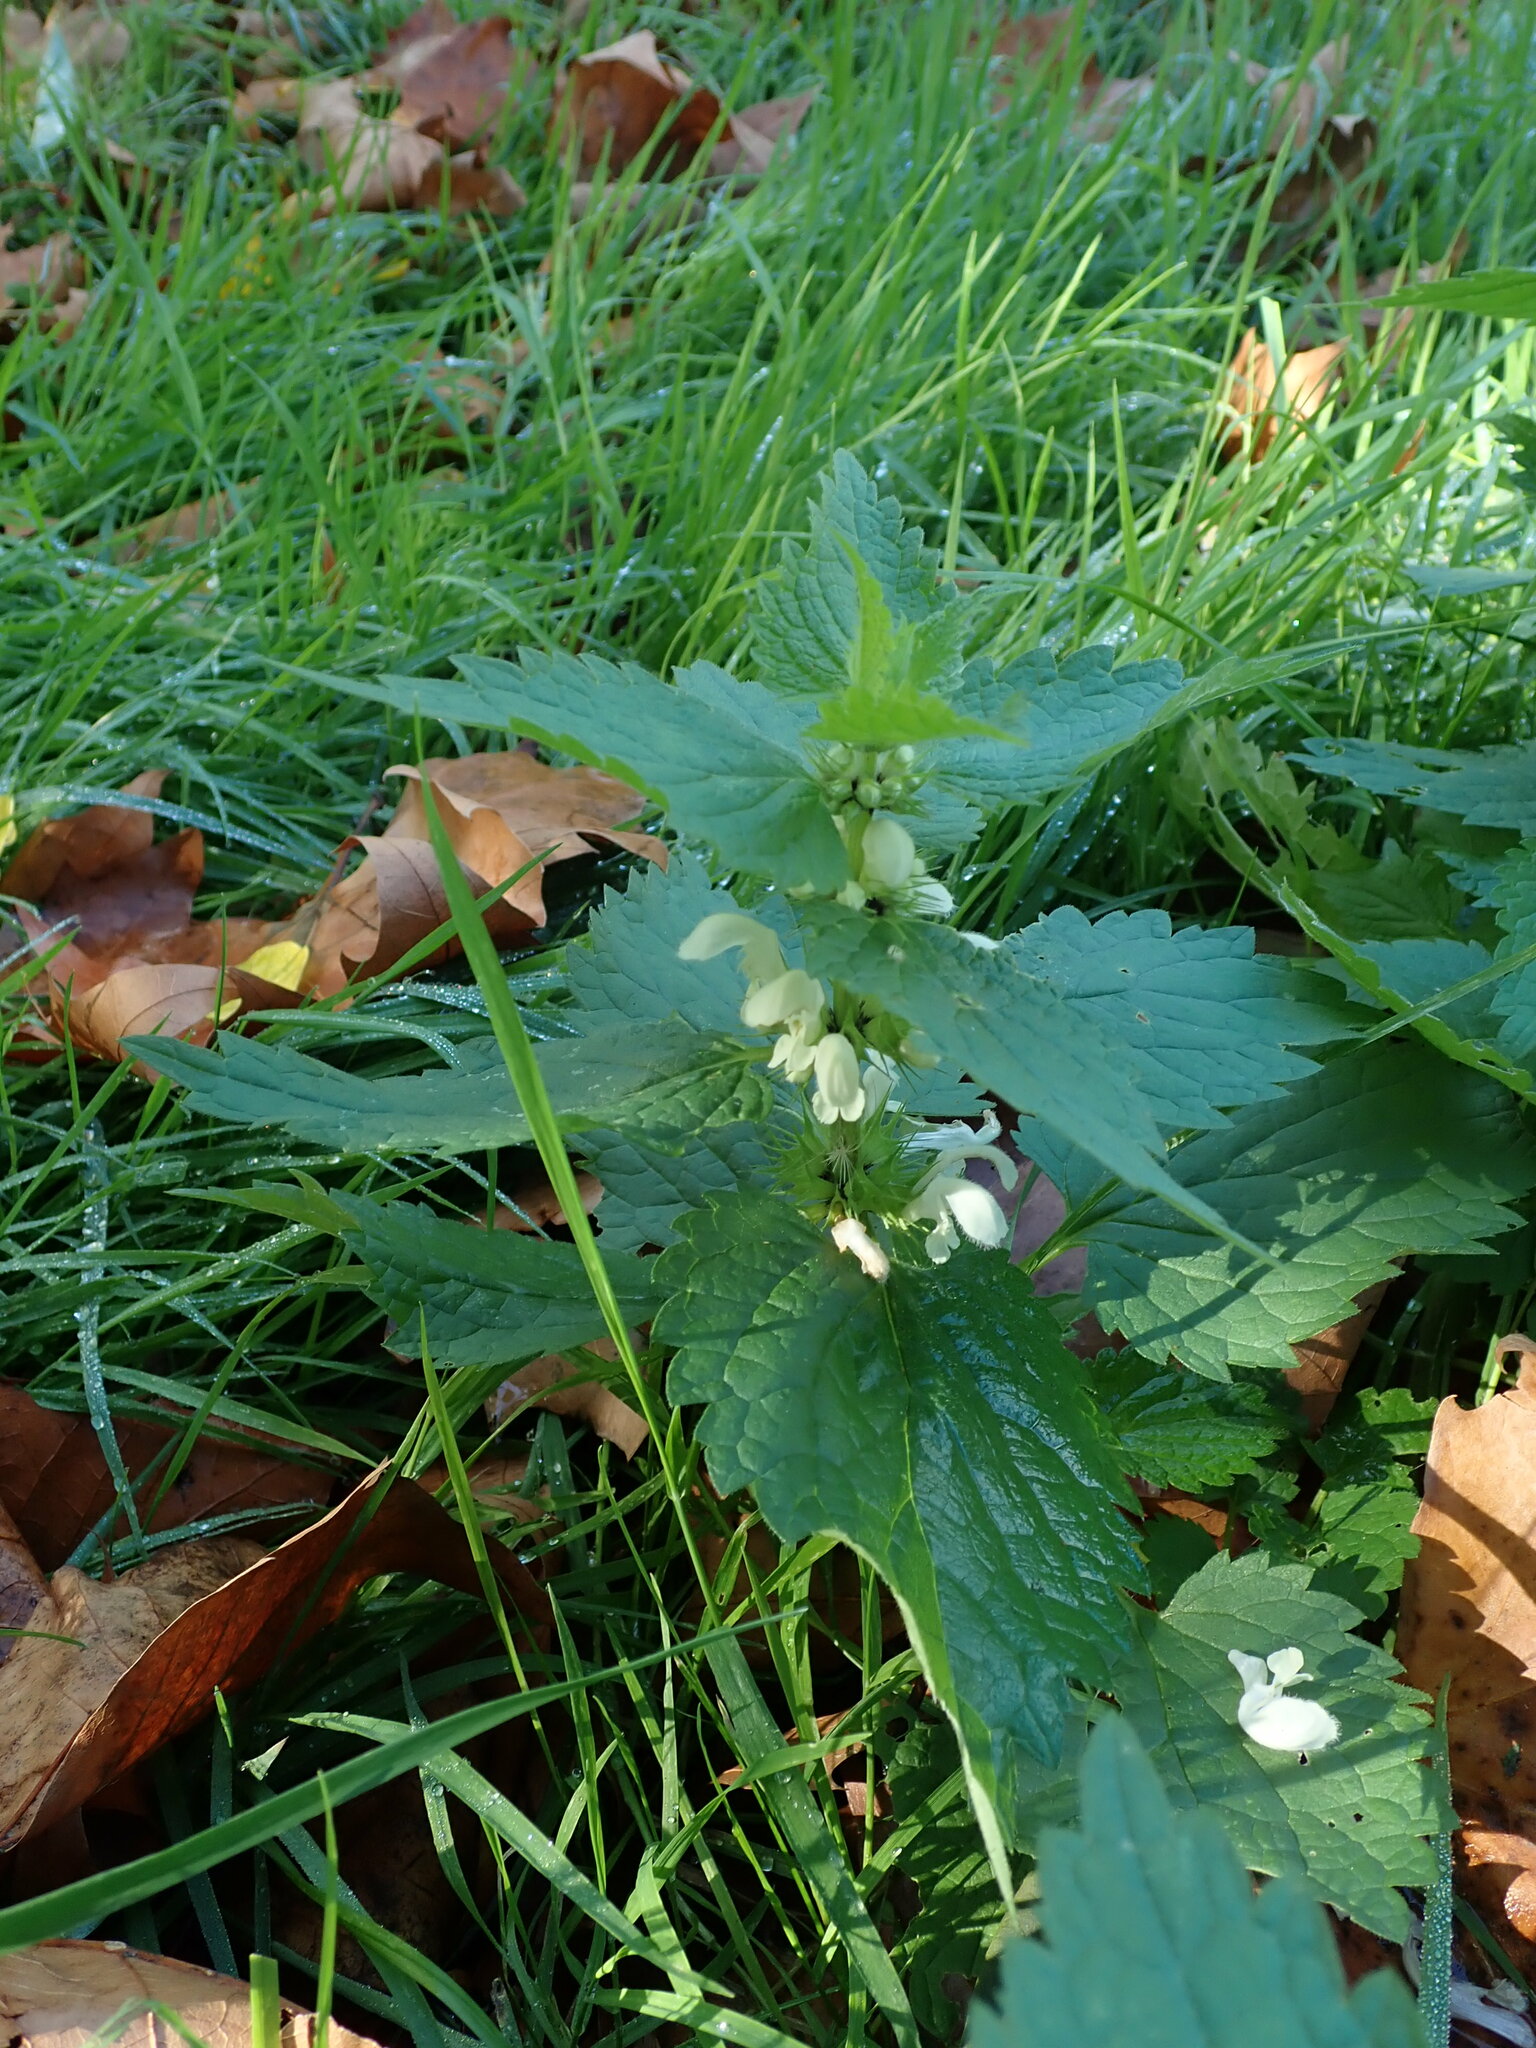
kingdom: Plantae
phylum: Tracheophyta
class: Magnoliopsida
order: Lamiales
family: Lamiaceae
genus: Lamium
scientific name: Lamium album
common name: White dead-nettle
